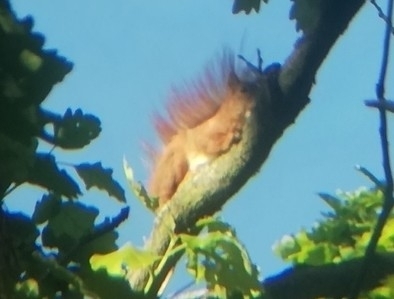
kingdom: Animalia
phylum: Chordata
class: Mammalia
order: Rodentia
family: Sciuridae
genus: Sciurus
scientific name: Sciurus vulgaris
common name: Eurasian red squirrel
